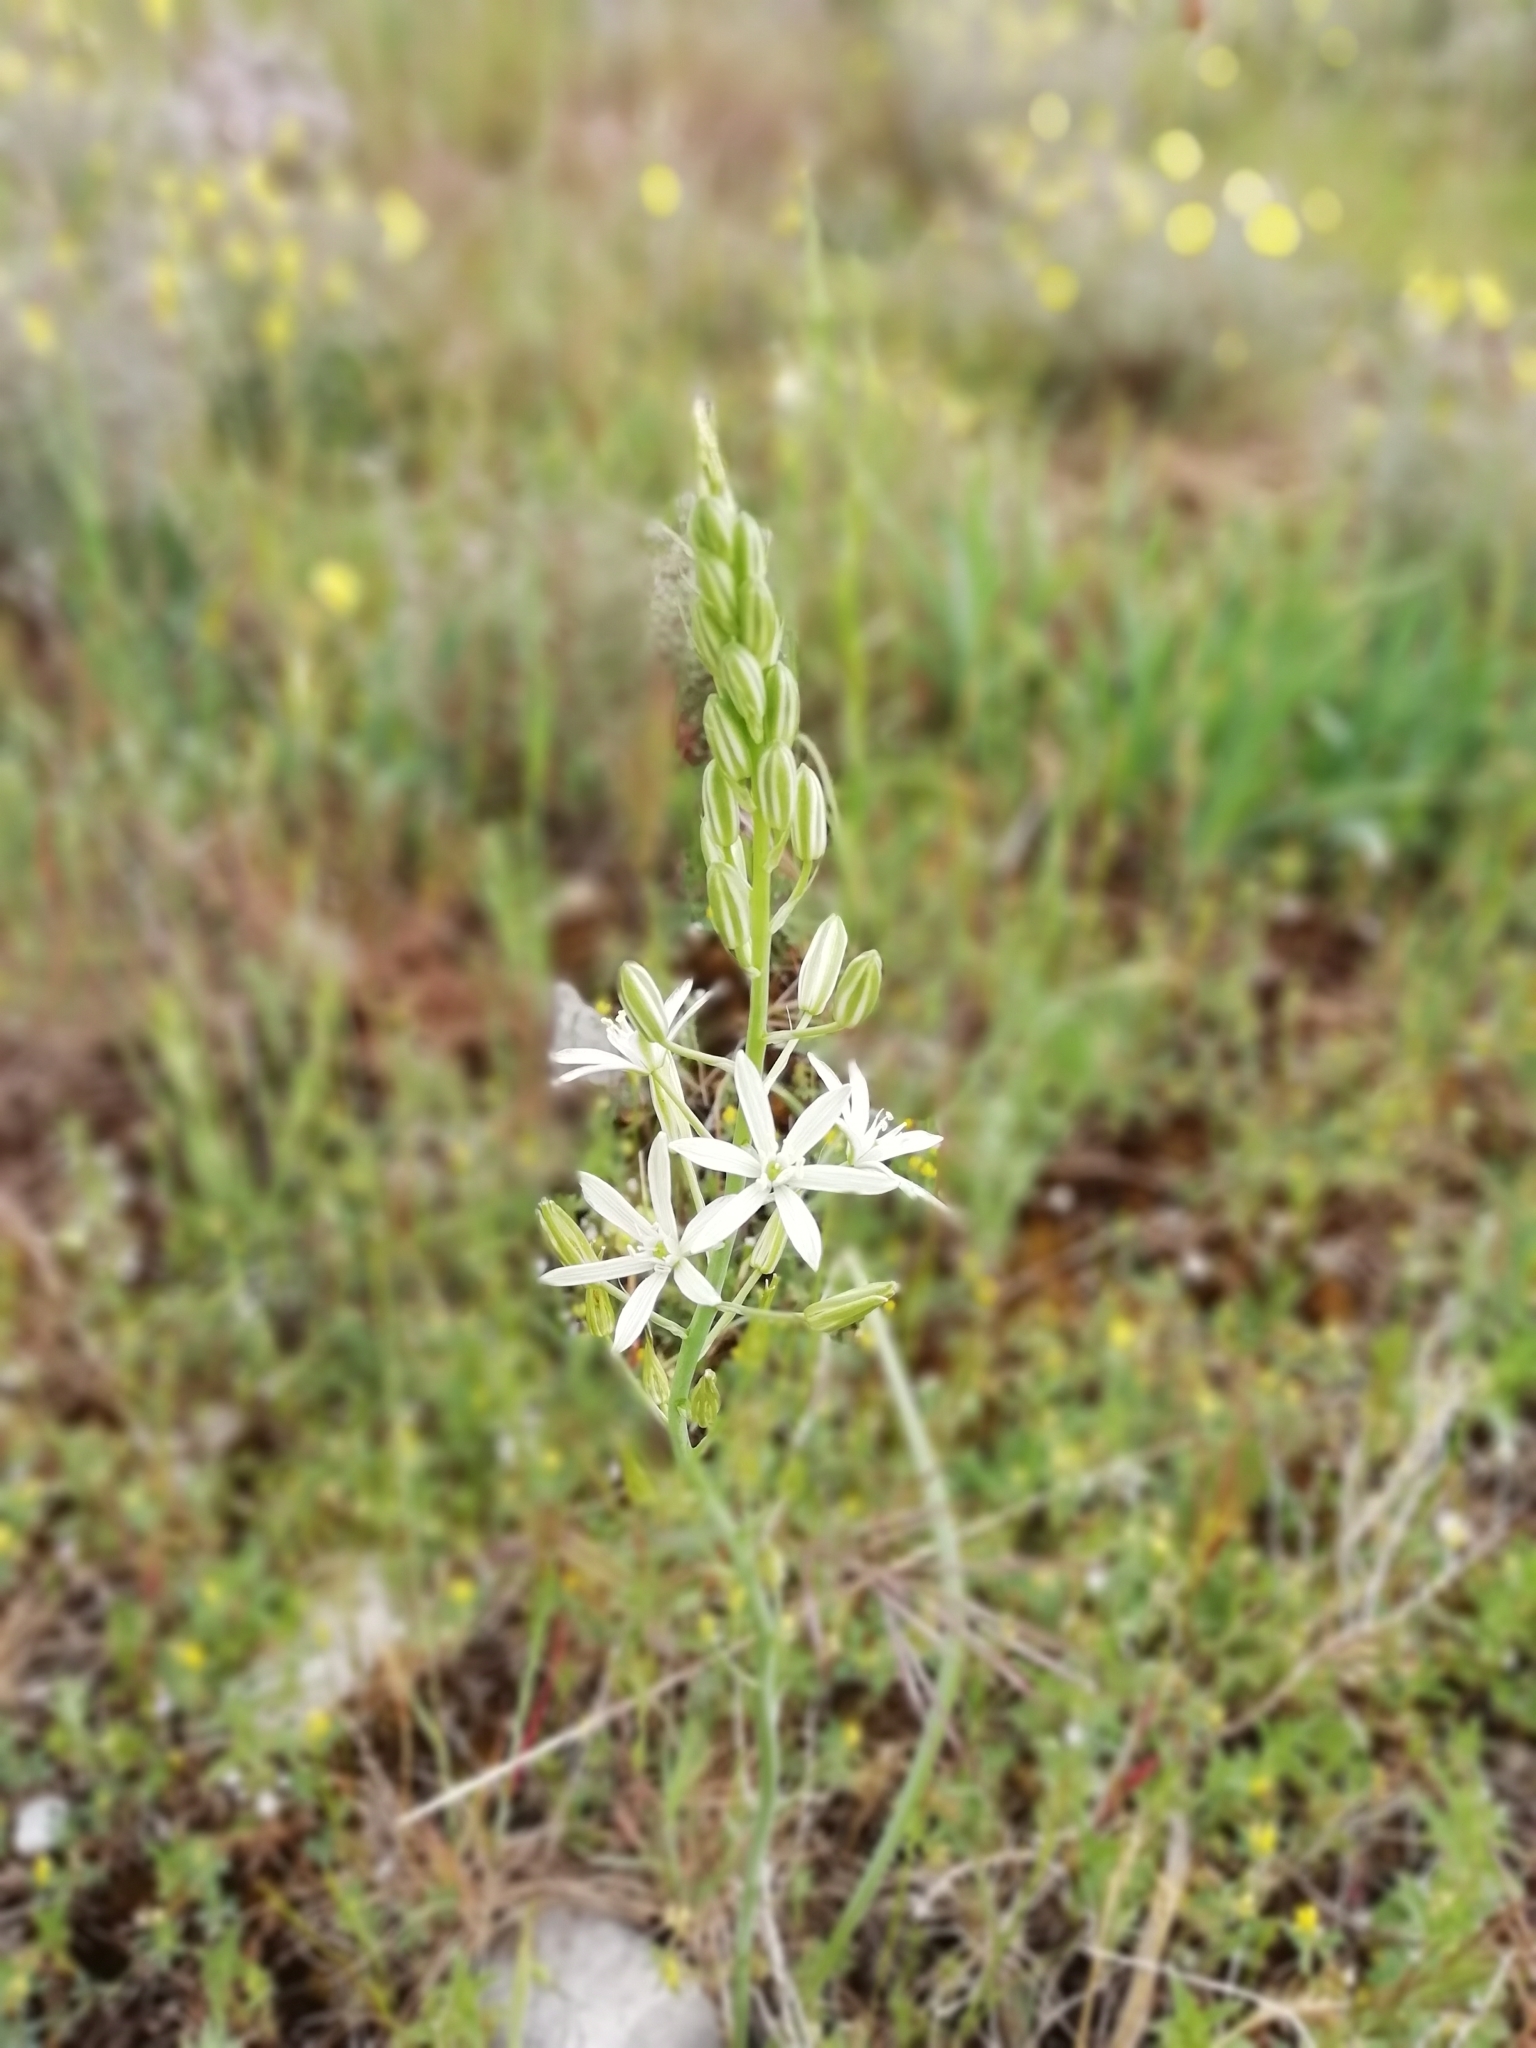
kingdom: Plantae
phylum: Tracheophyta
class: Liliopsida
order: Asparagales
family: Asparagaceae
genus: Ornithogalum
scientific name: Ornithogalum narbonense
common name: Bath-asparagus
